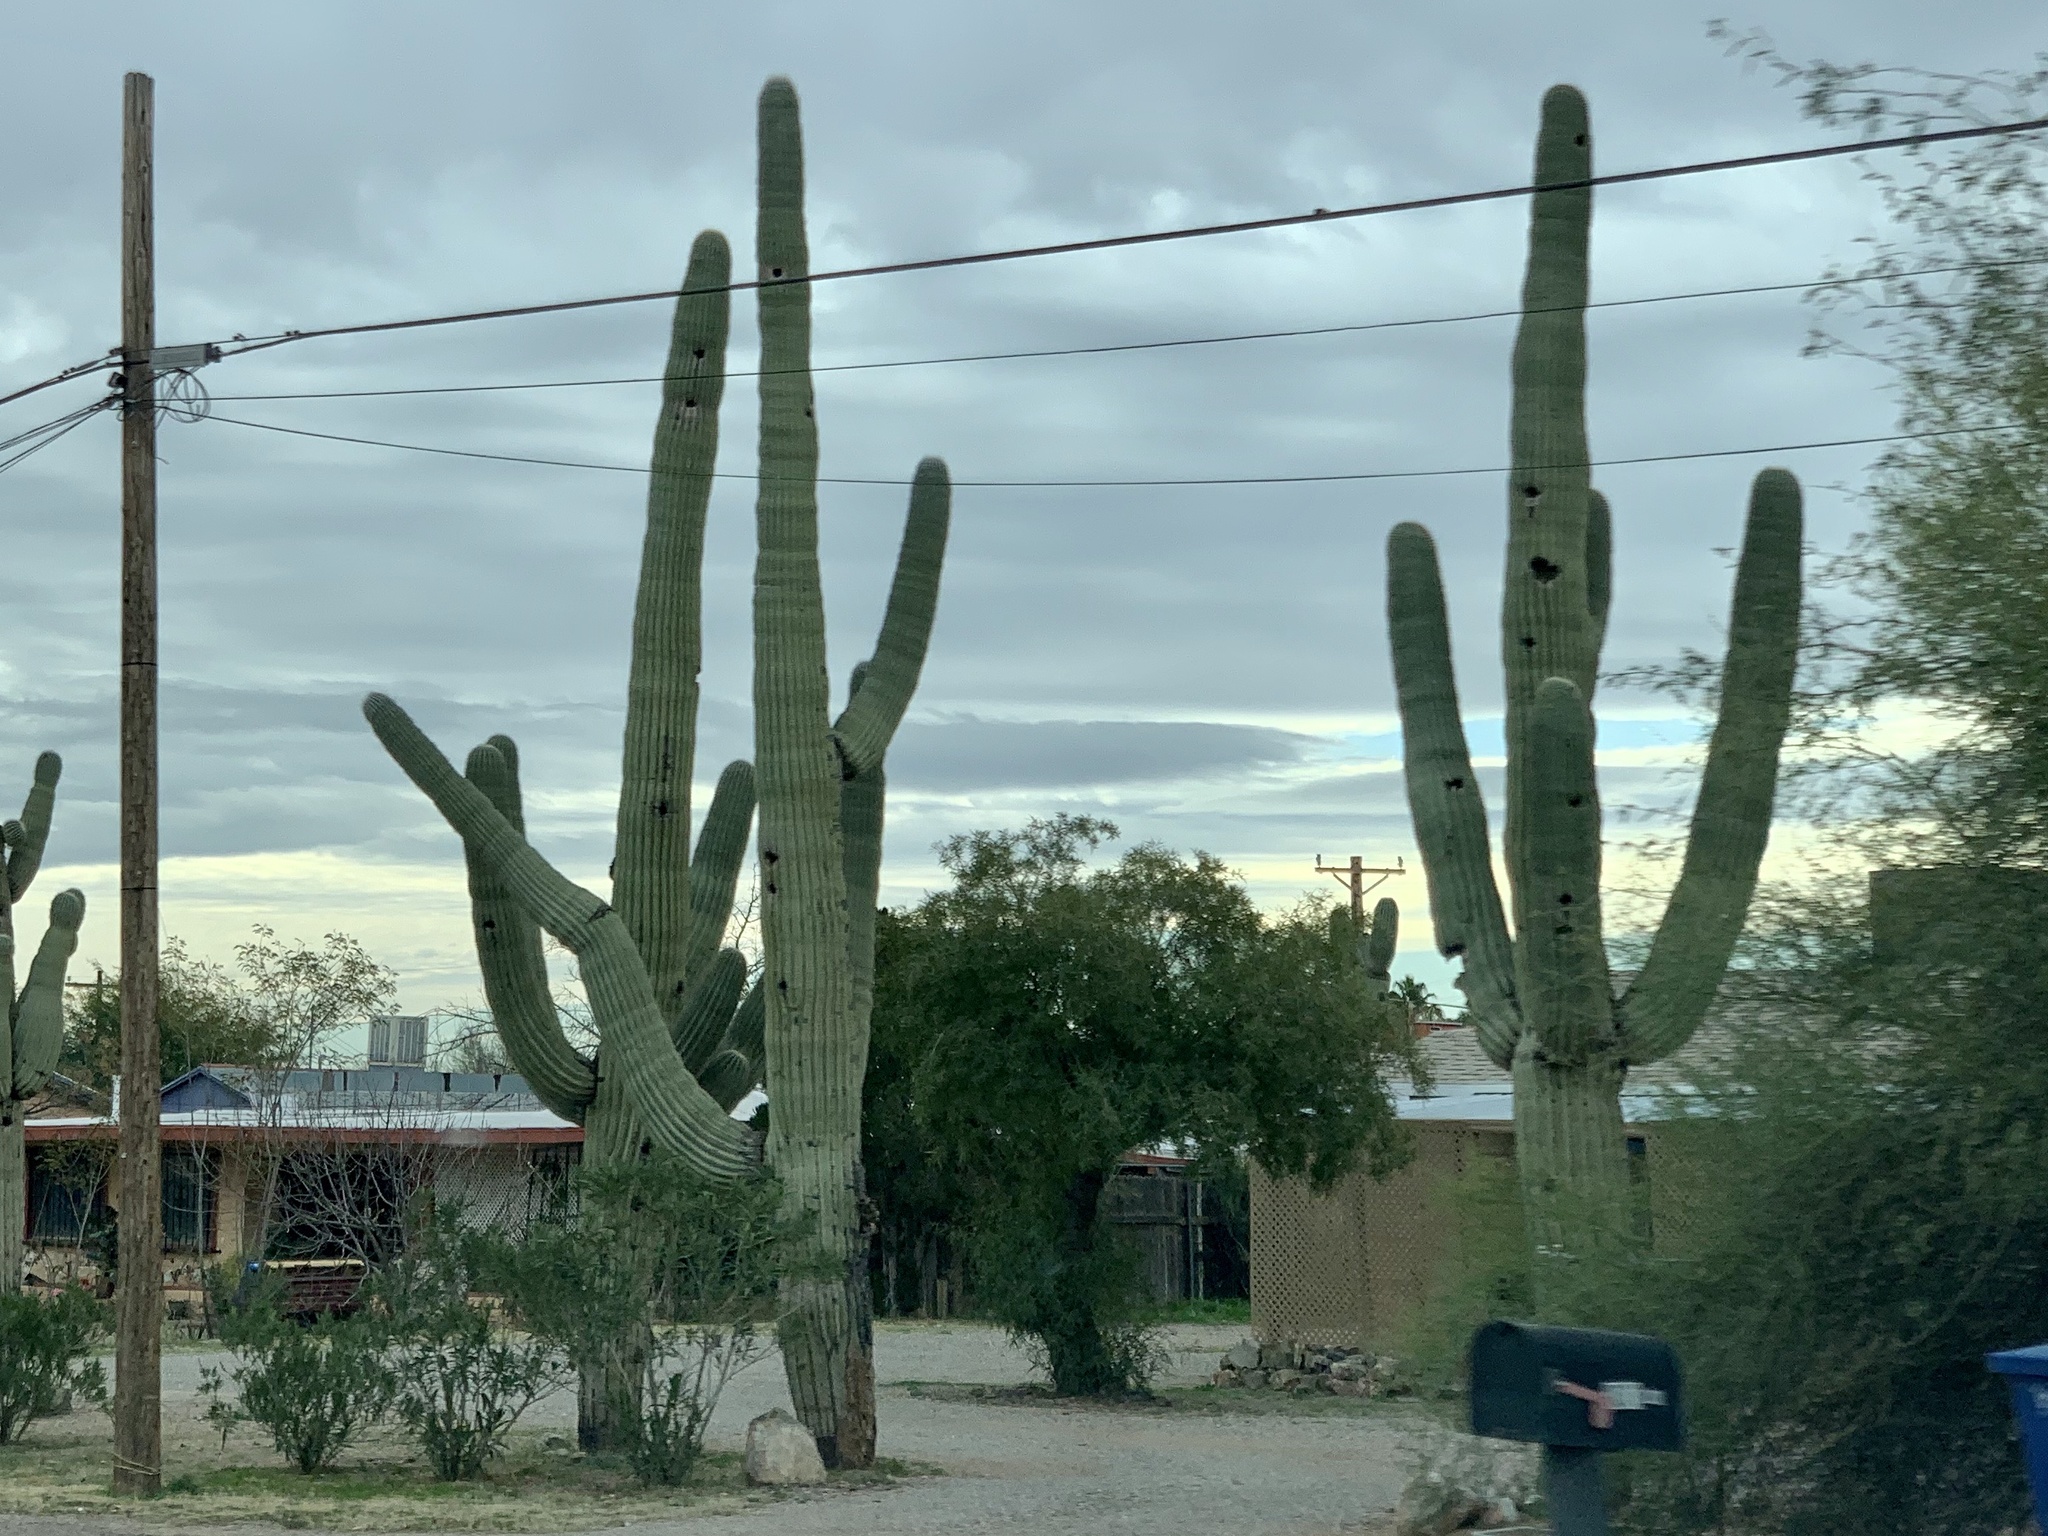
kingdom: Plantae
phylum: Tracheophyta
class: Magnoliopsida
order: Caryophyllales
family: Cactaceae
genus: Carnegiea
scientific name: Carnegiea gigantea
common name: Saguaro
